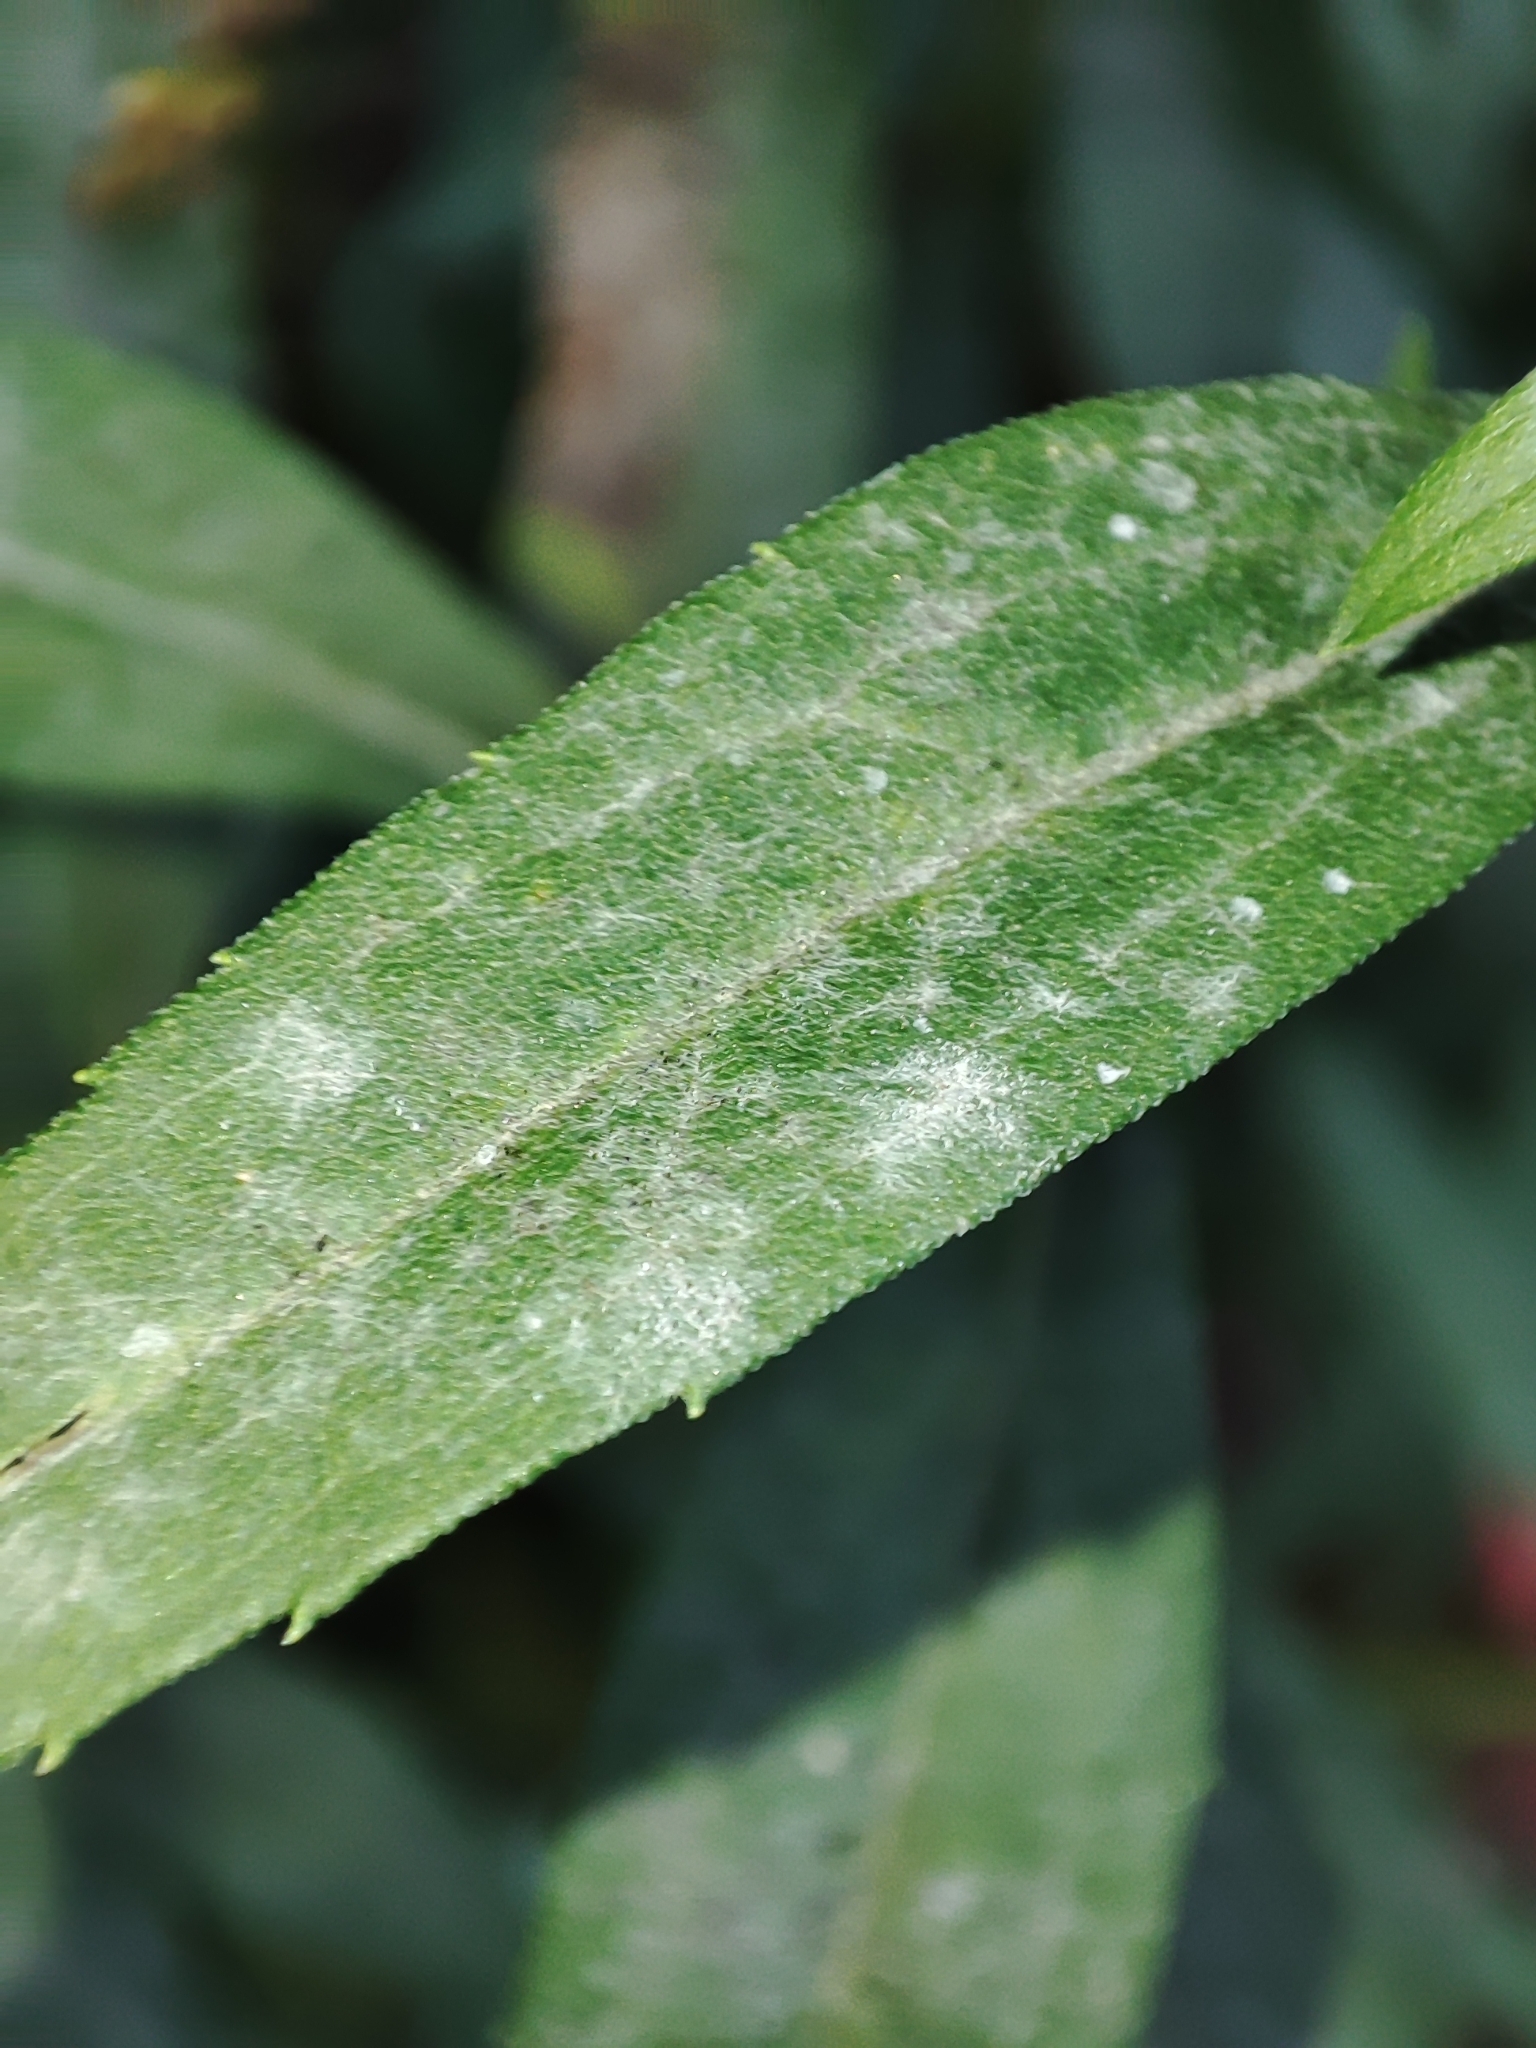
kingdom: Fungi
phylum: Ascomycota
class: Leotiomycetes
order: Helotiales
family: Erysiphaceae
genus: Golovinomyces
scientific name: Golovinomyces asterum
